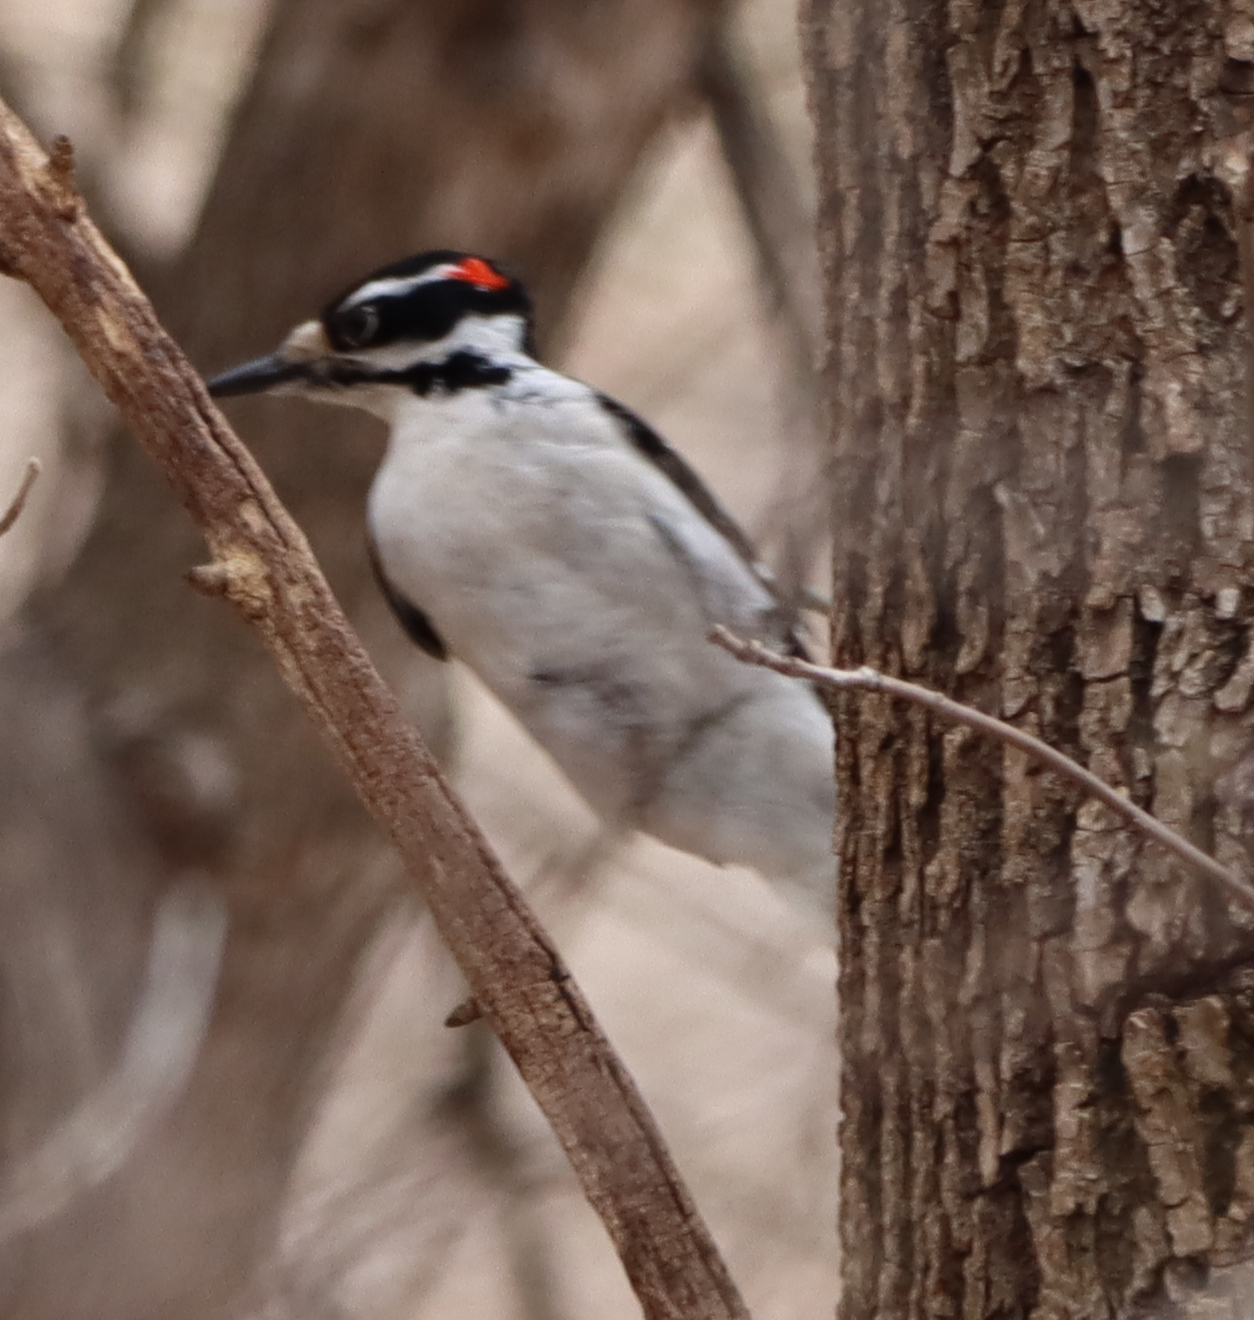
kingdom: Animalia
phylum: Chordata
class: Aves
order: Piciformes
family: Picidae
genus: Leuconotopicus
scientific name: Leuconotopicus villosus
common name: Hairy woodpecker
